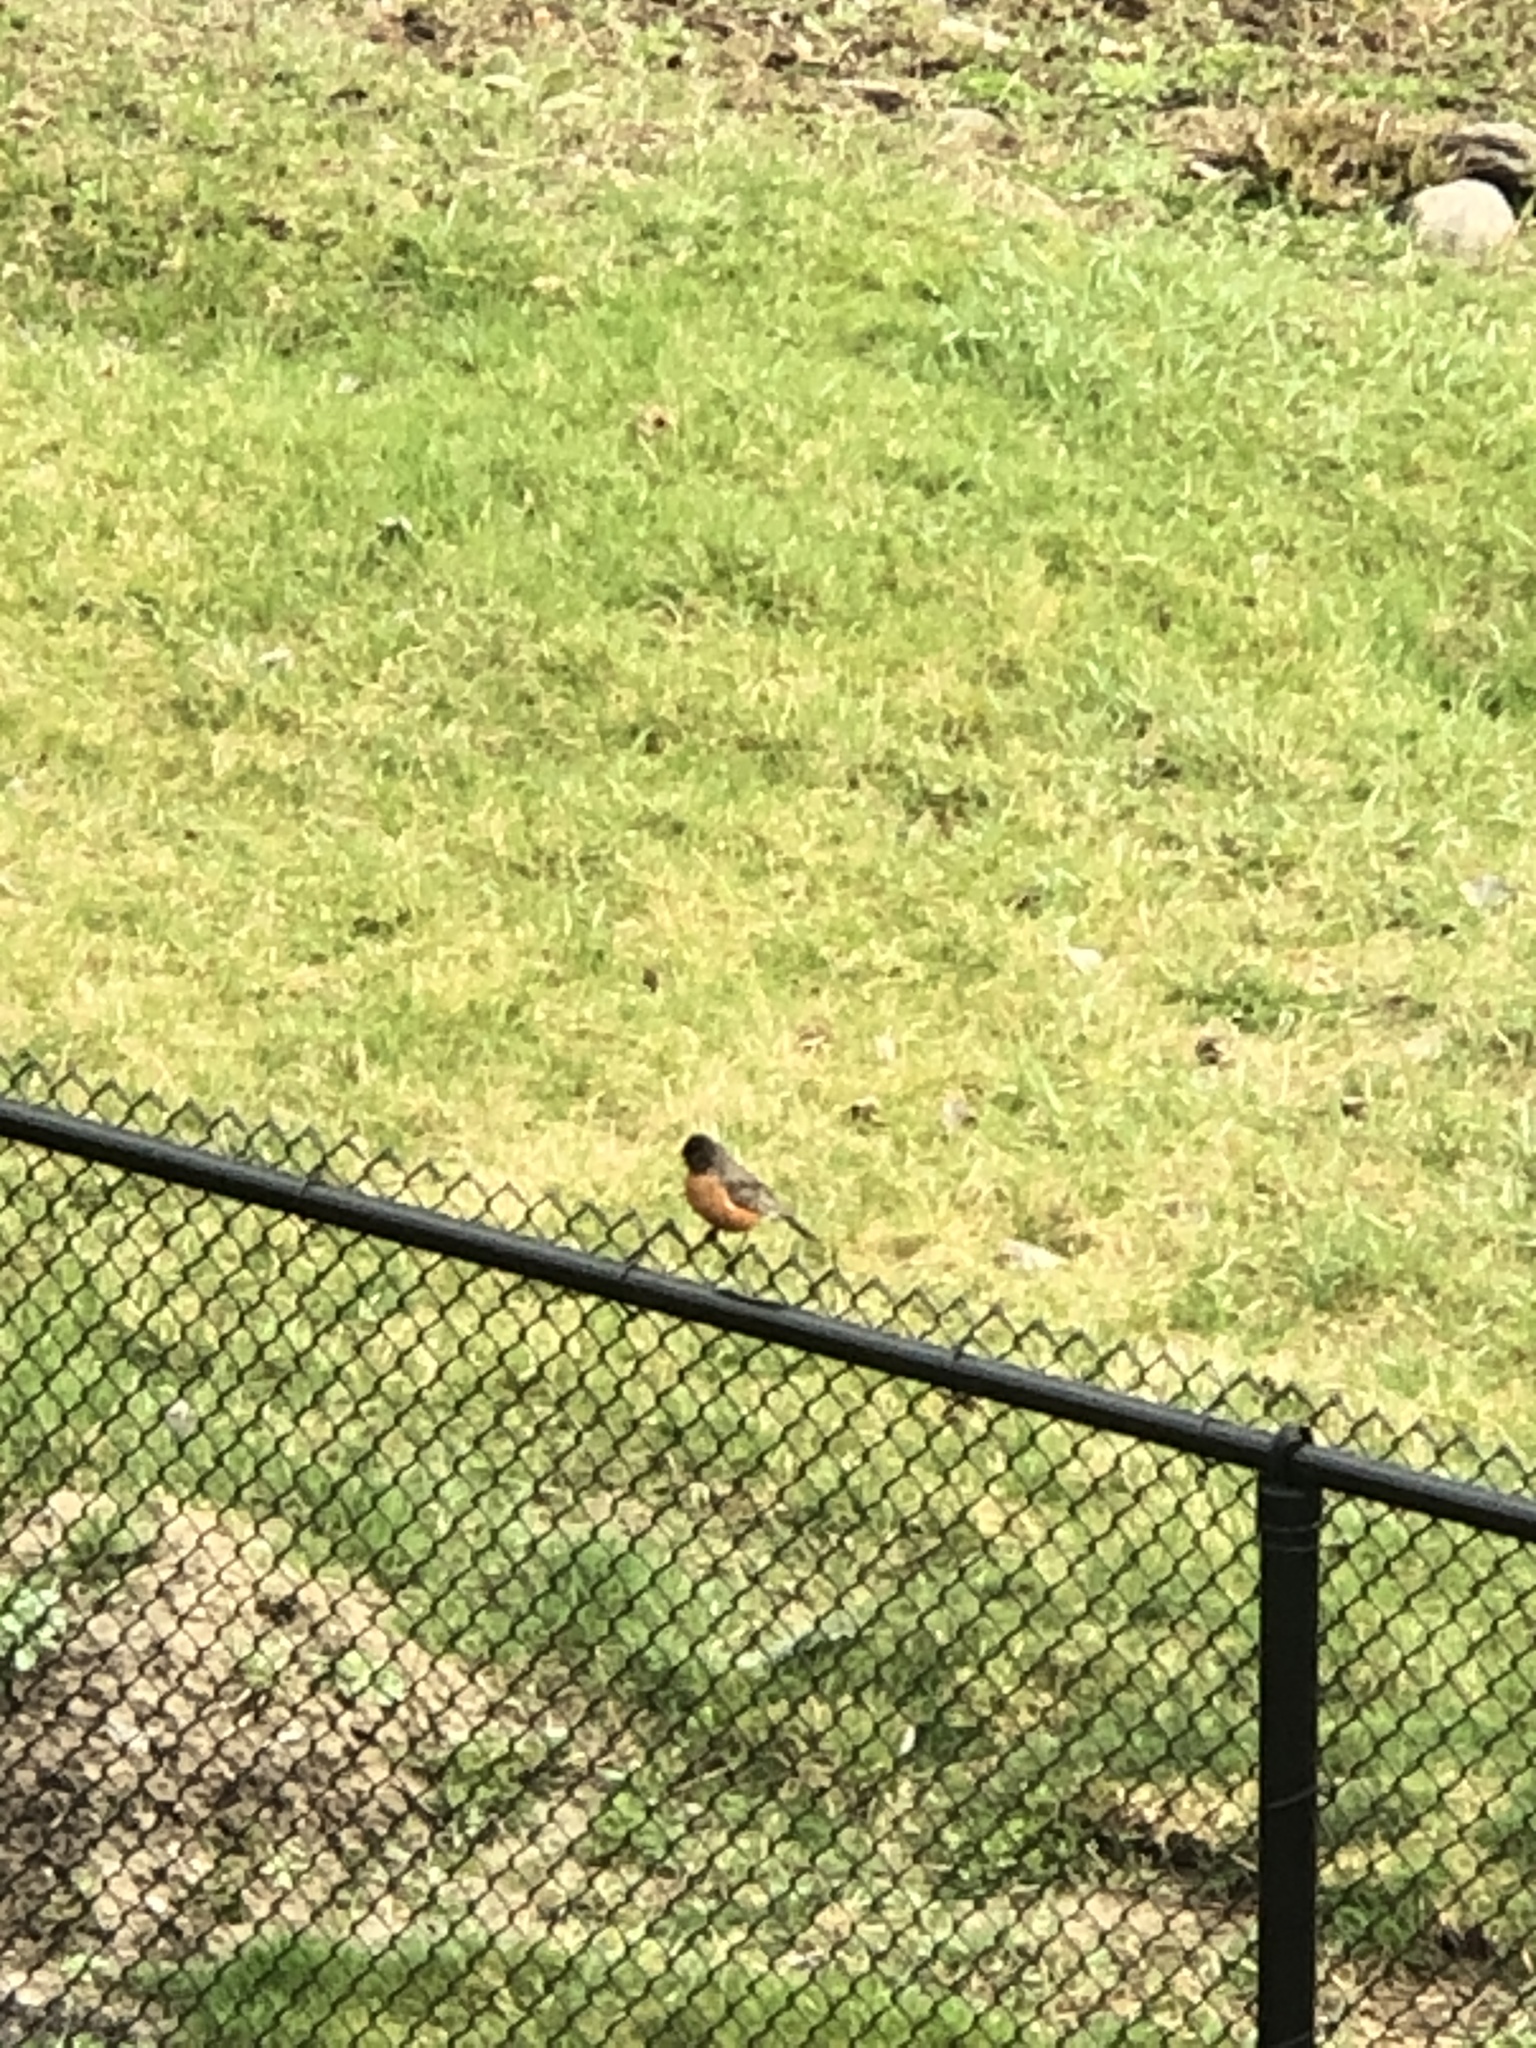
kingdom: Animalia
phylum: Chordata
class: Aves
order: Passeriformes
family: Turdidae
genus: Turdus
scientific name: Turdus migratorius
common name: American robin
